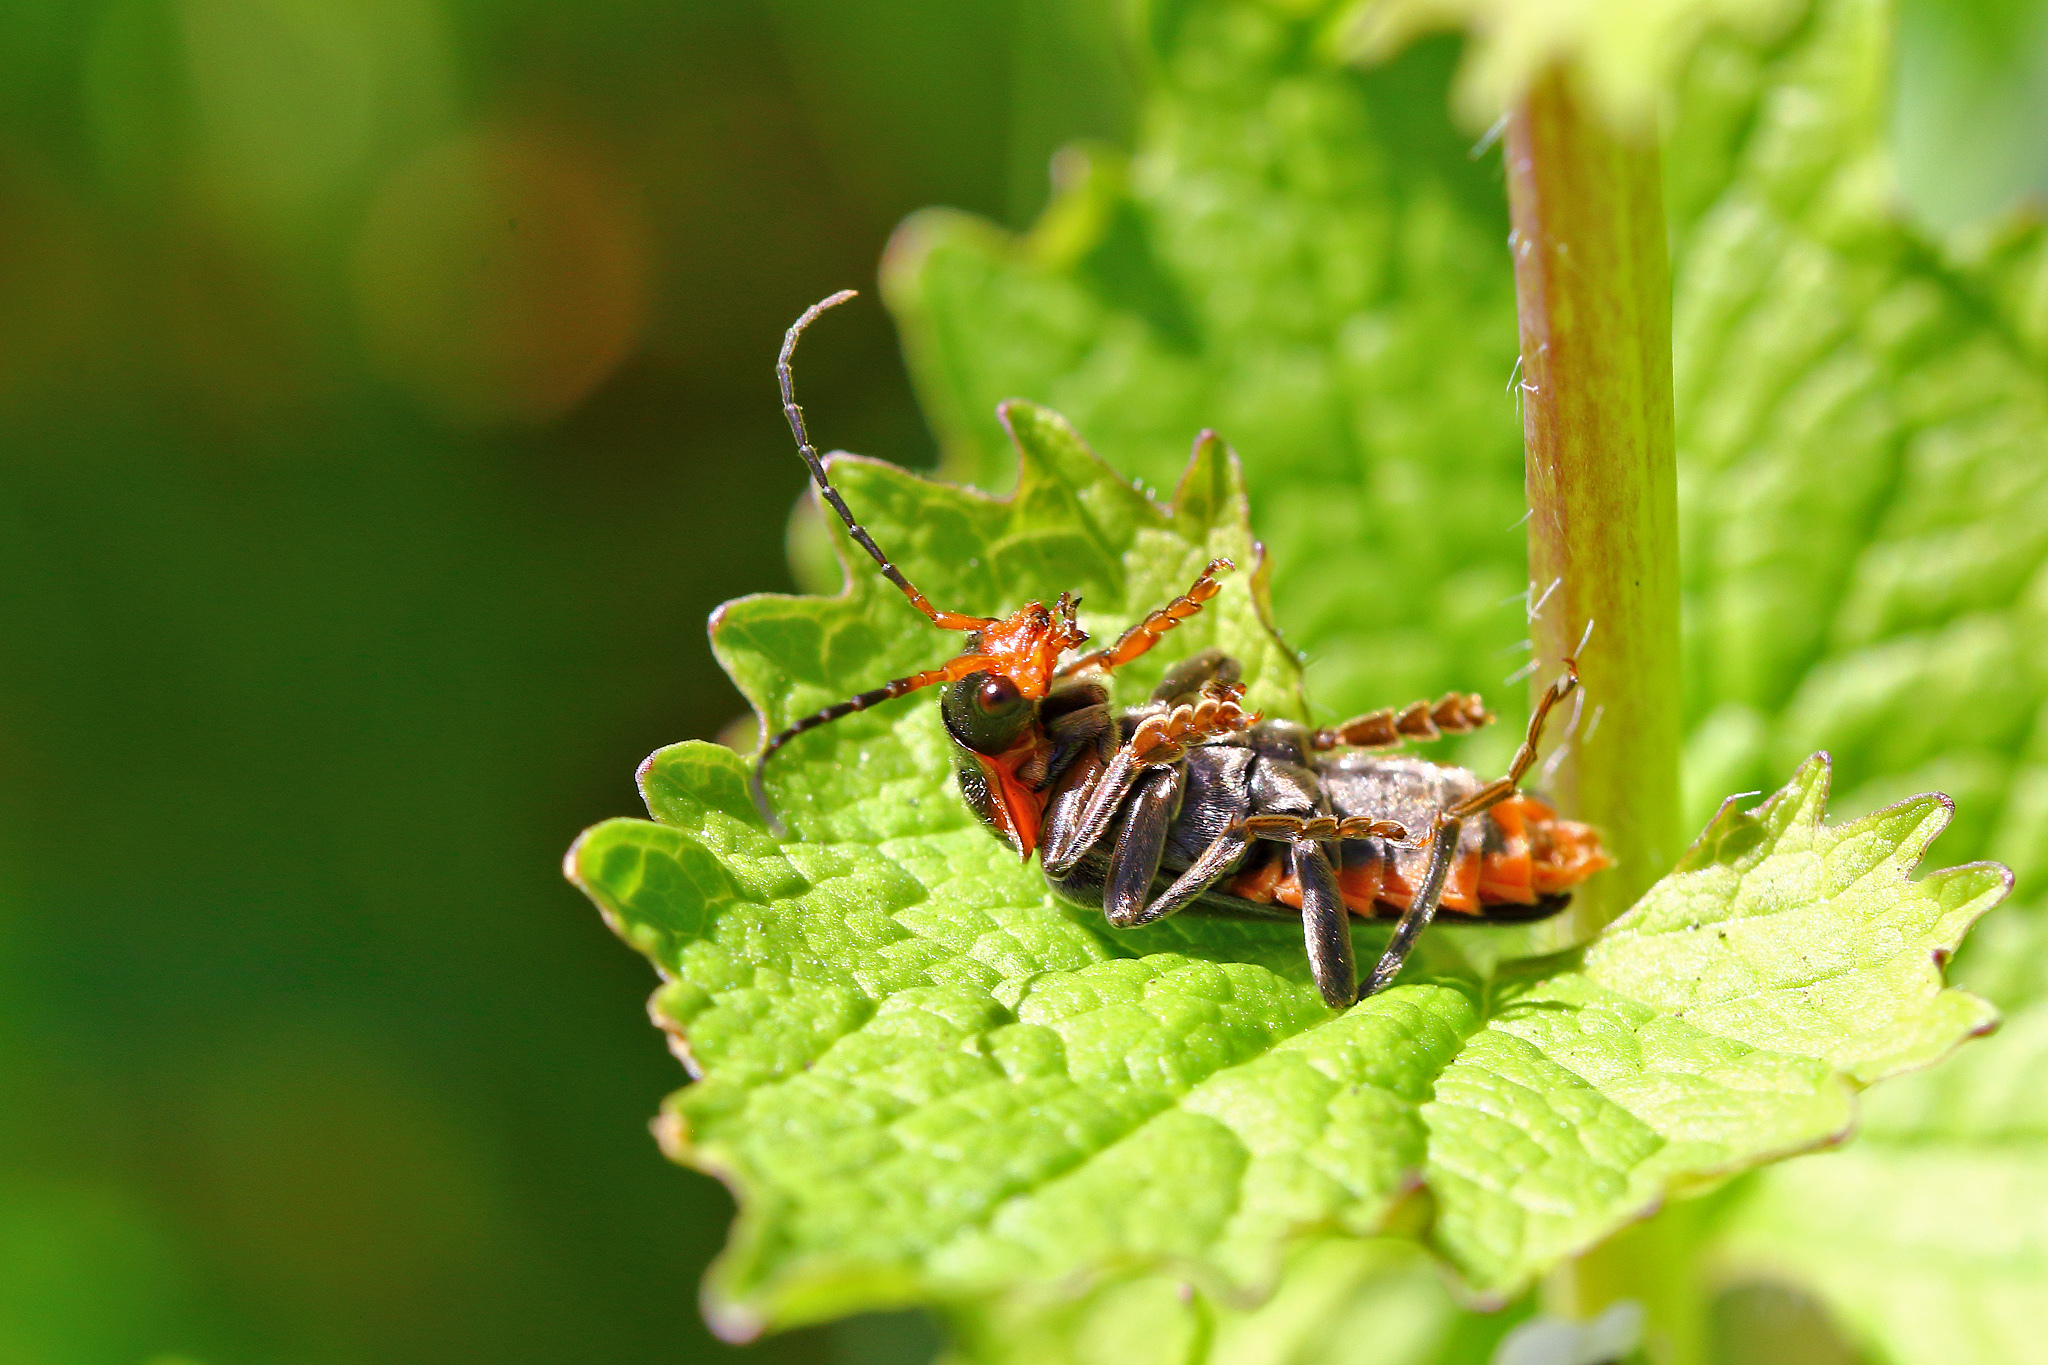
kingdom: Animalia
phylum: Arthropoda
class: Insecta
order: Coleoptera
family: Cantharidae
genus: Cantharis
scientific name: Cantharis fusca
